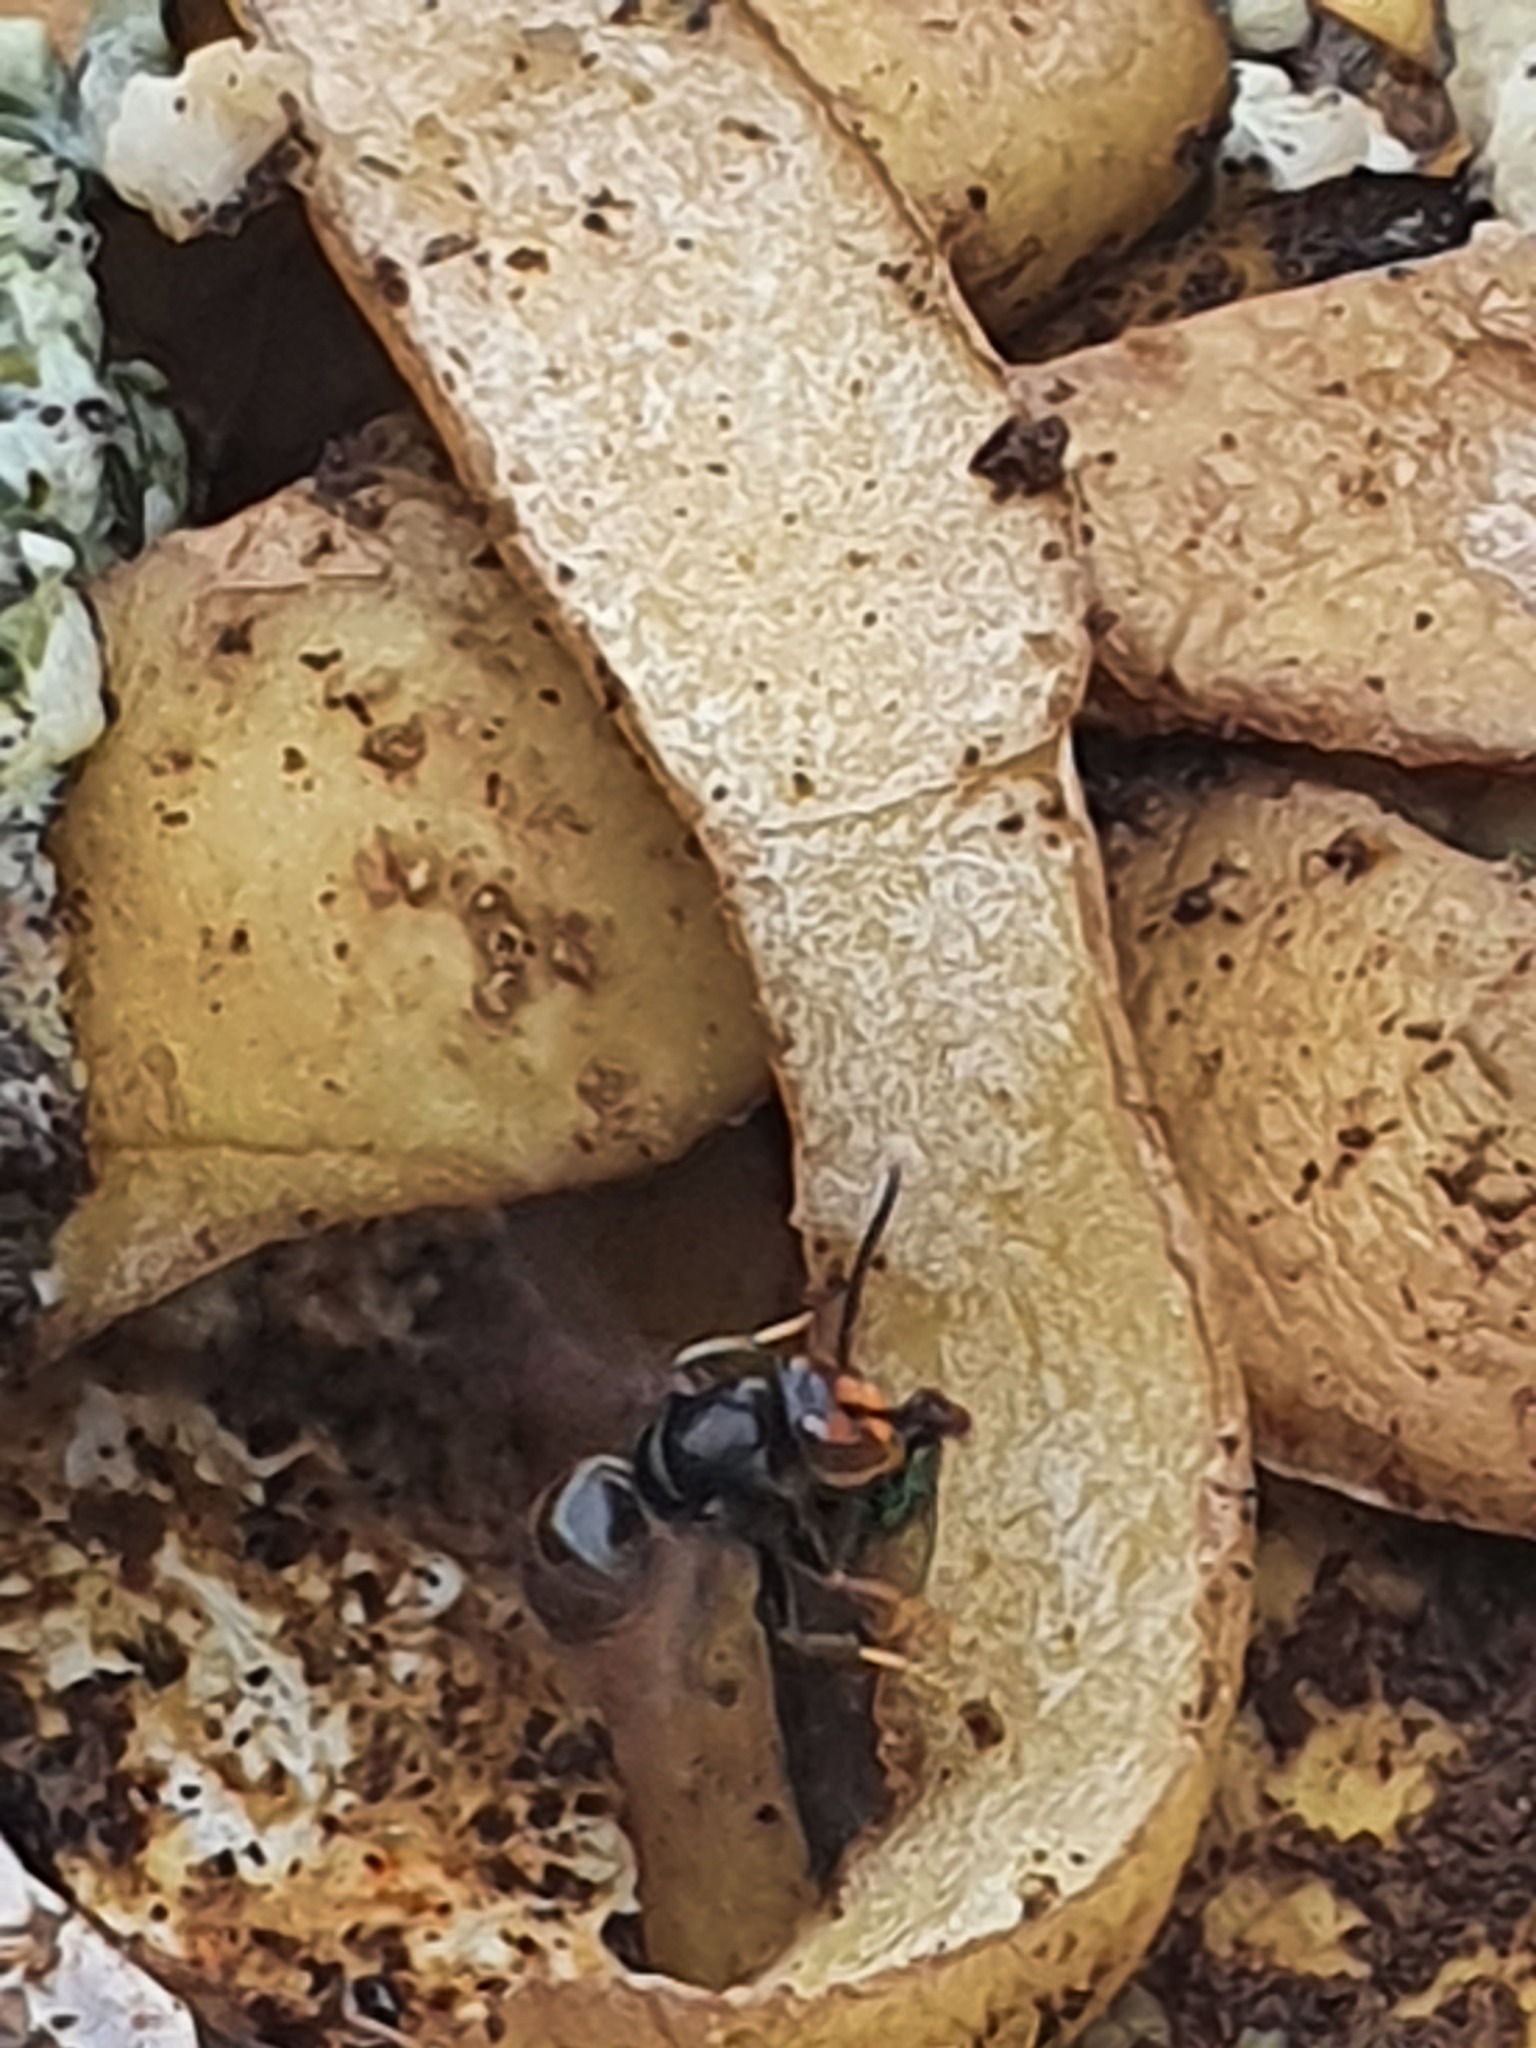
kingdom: Animalia
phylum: Arthropoda
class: Insecta
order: Hymenoptera
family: Vespidae
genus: Vespa
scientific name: Vespa velutina
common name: Asian hornet
